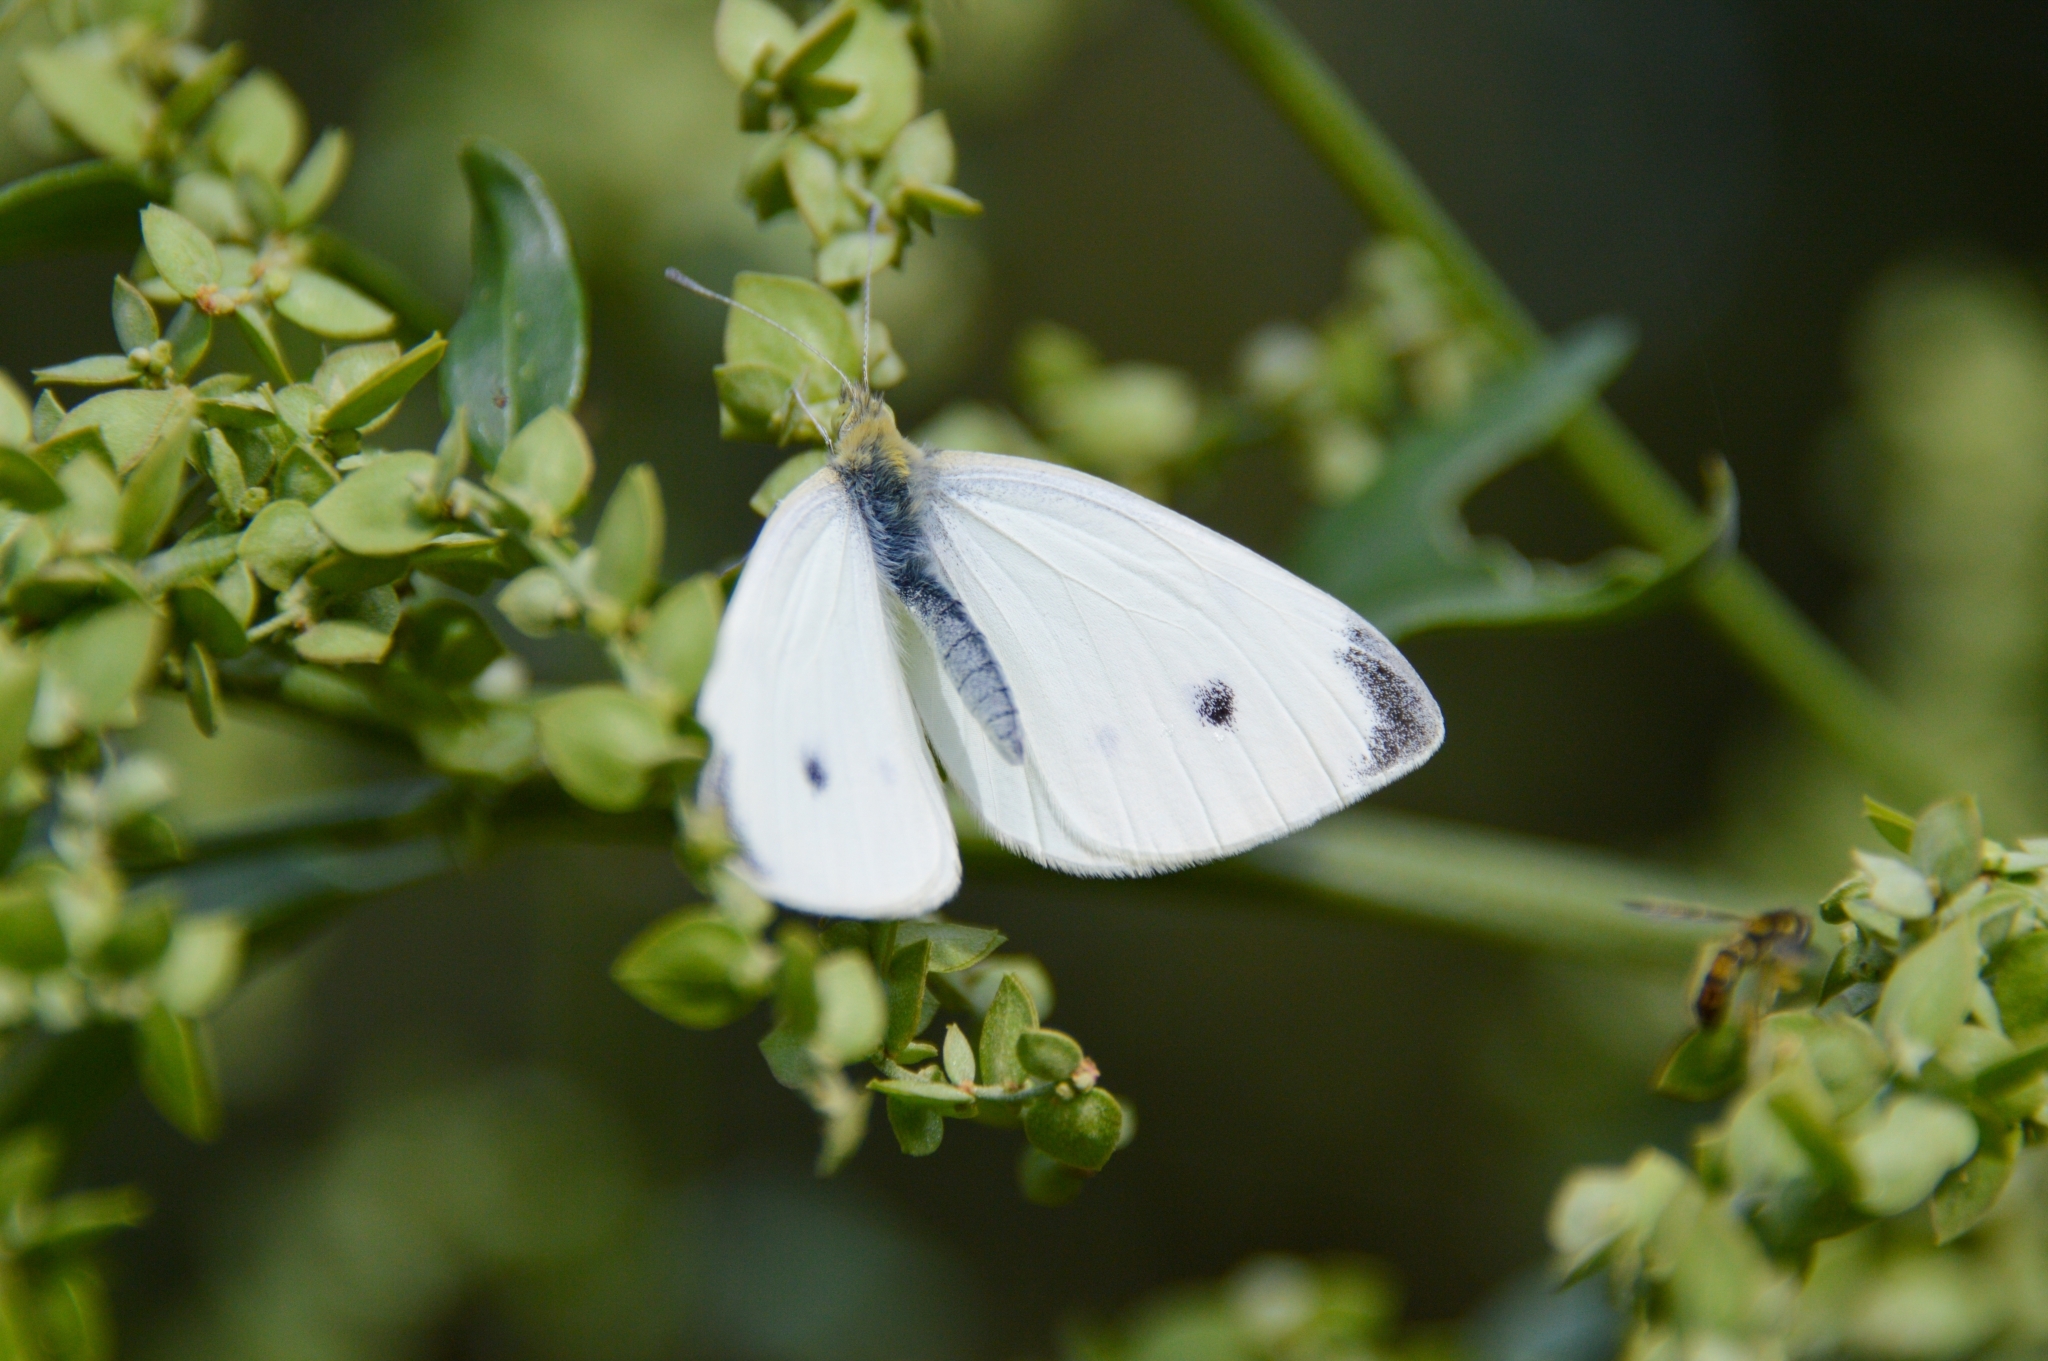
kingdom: Animalia
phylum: Arthropoda
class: Insecta
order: Lepidoptera
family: Pieridae
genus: Pieris
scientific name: Pieris rapae
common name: Small white
